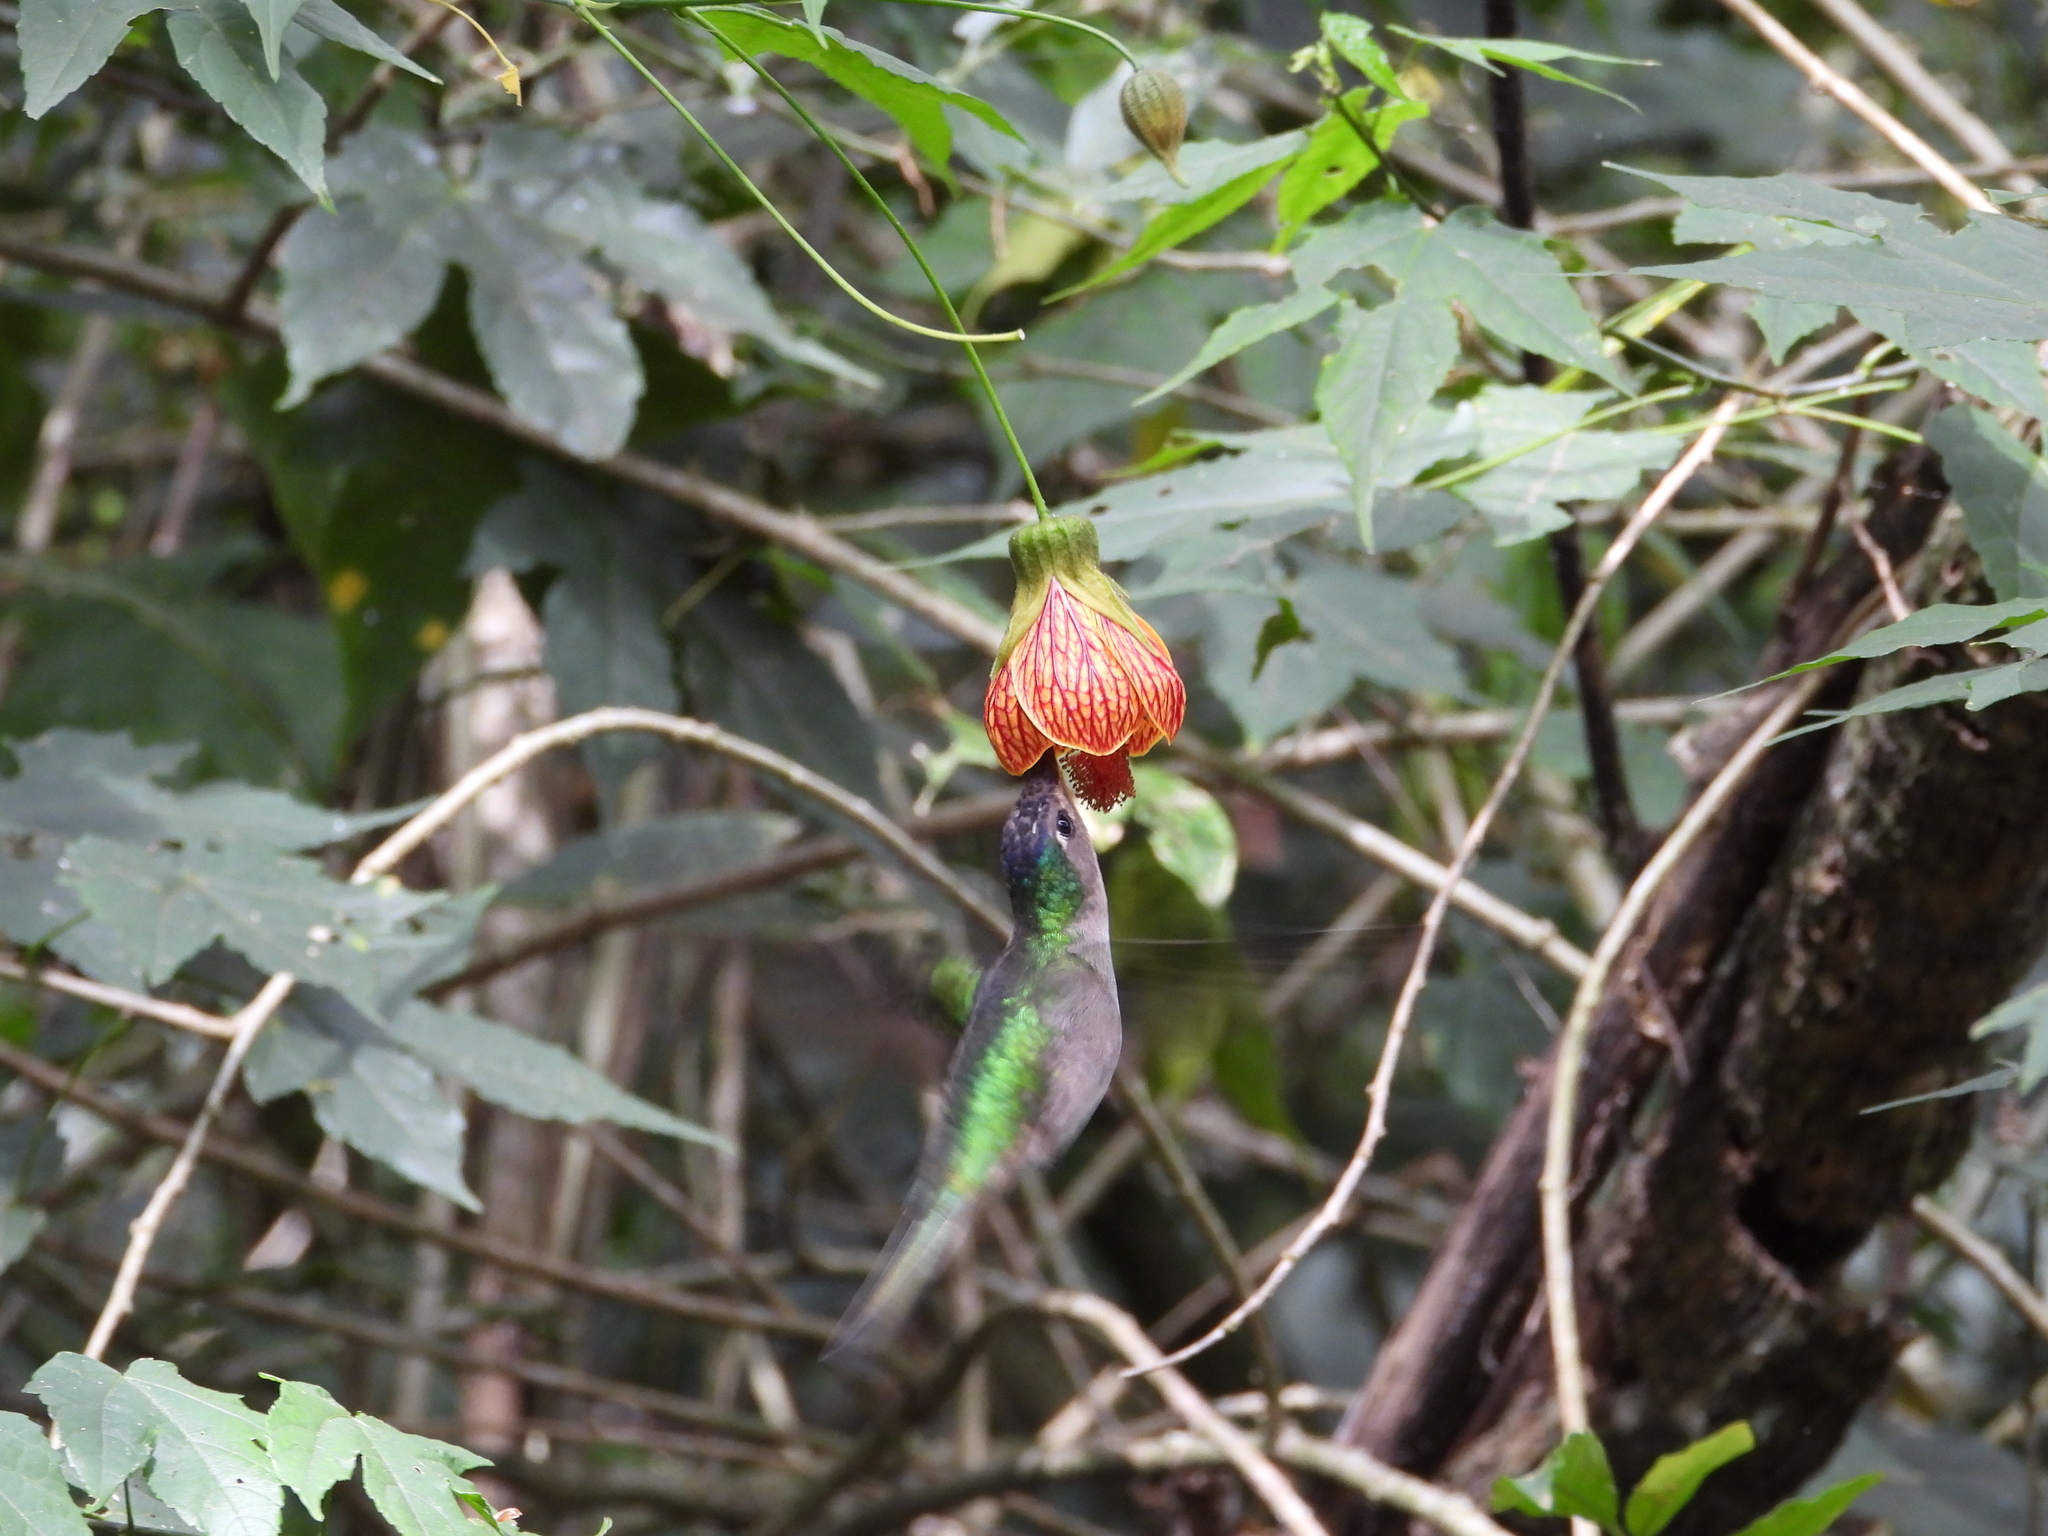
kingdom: Animalia
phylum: Chordata
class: Aves
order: Apodiformes
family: Trochilidae
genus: Pampa
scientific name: Pampa curvipennis
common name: Curve-winged sabrewing
